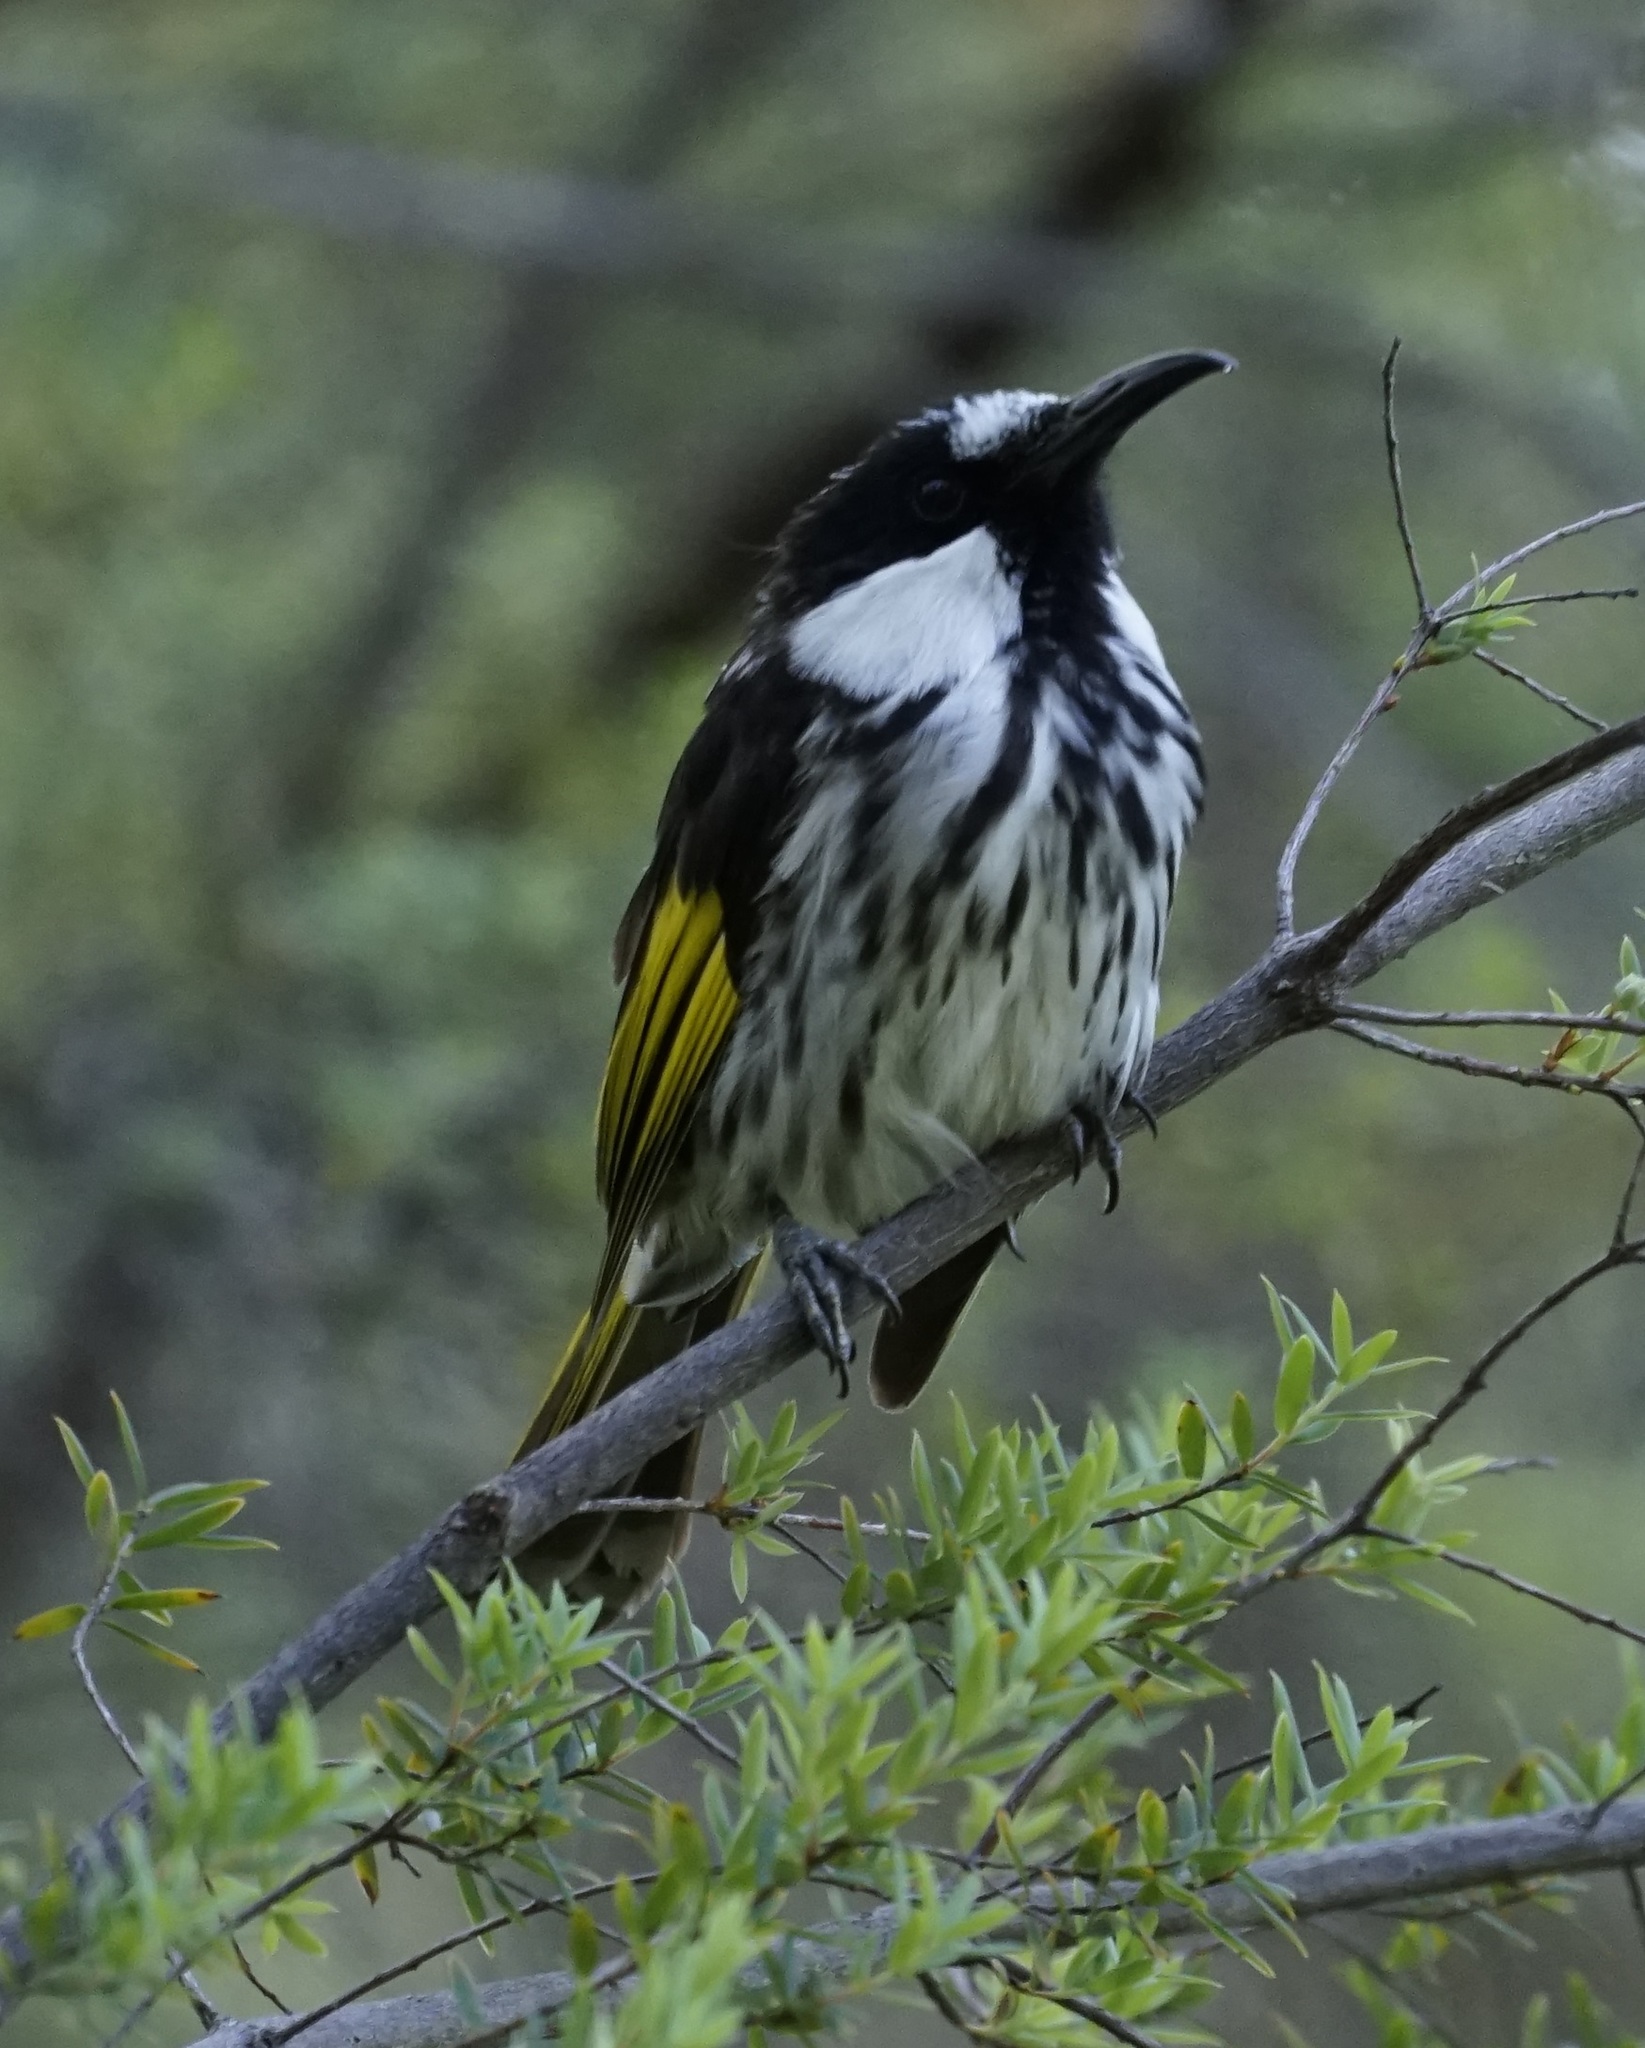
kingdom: Animalia
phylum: Chordata
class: Aves
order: Passeriformes
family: Meliphagidae
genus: Phylidonyris
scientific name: Phylidonyris niger
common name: White-cheeked honeyeater
